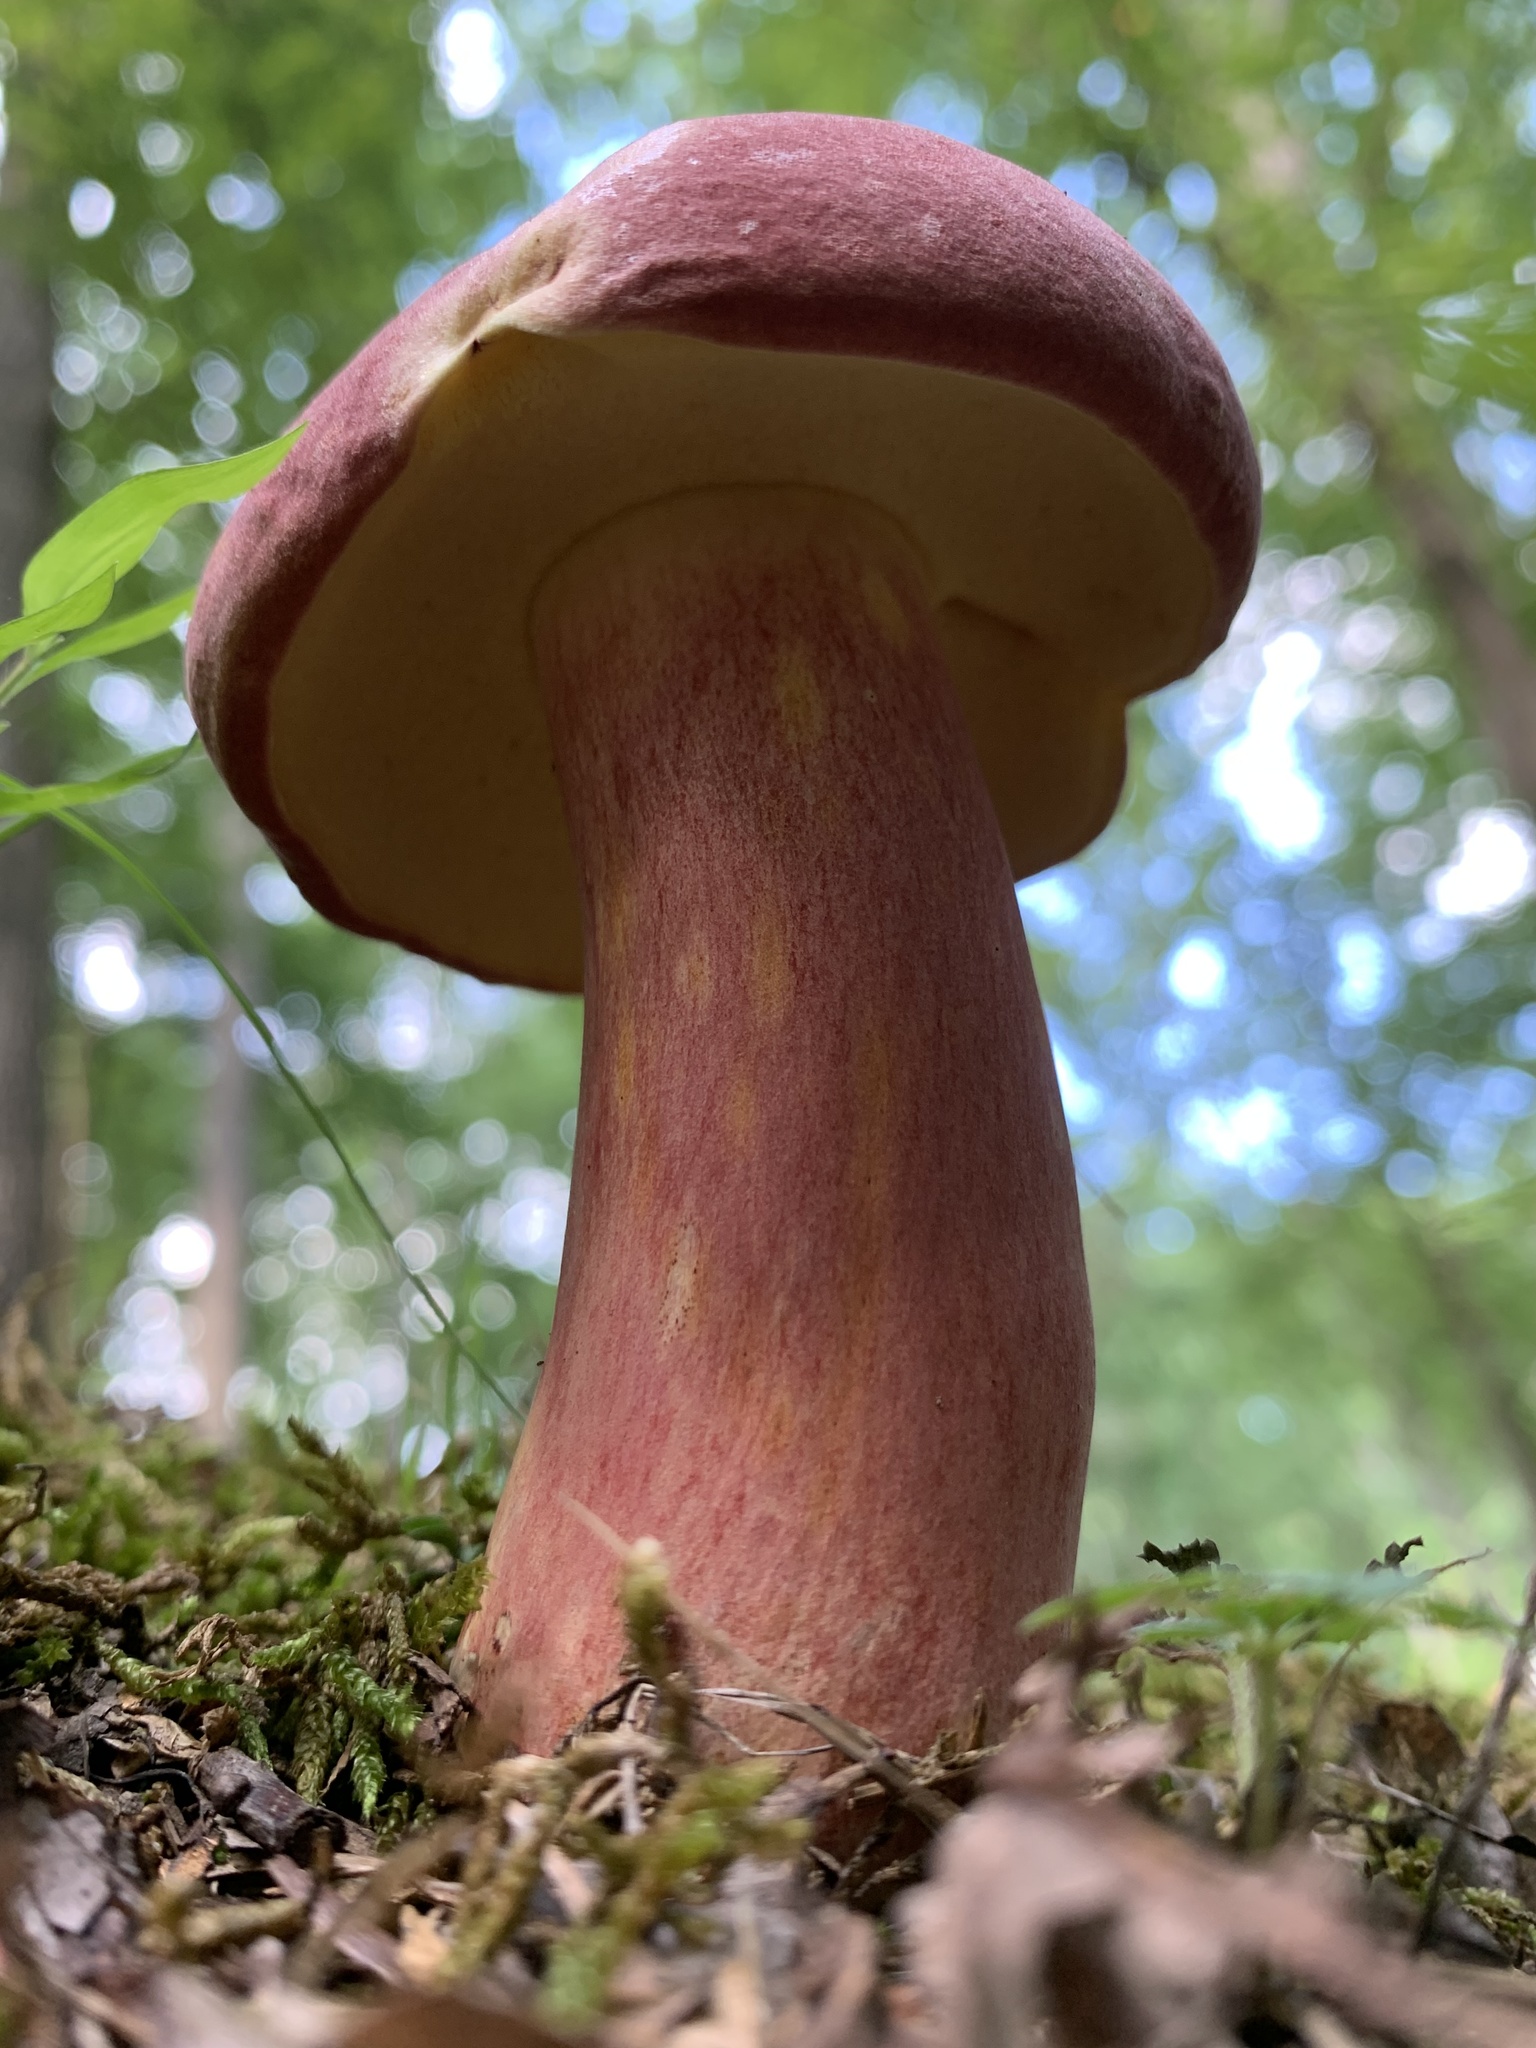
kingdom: Fungi
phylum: Basidiomycota
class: Agaricomycetes
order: Boletales
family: Boletaceae
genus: Baorangia
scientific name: Baorangia bicolor
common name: Two-colored bolete
